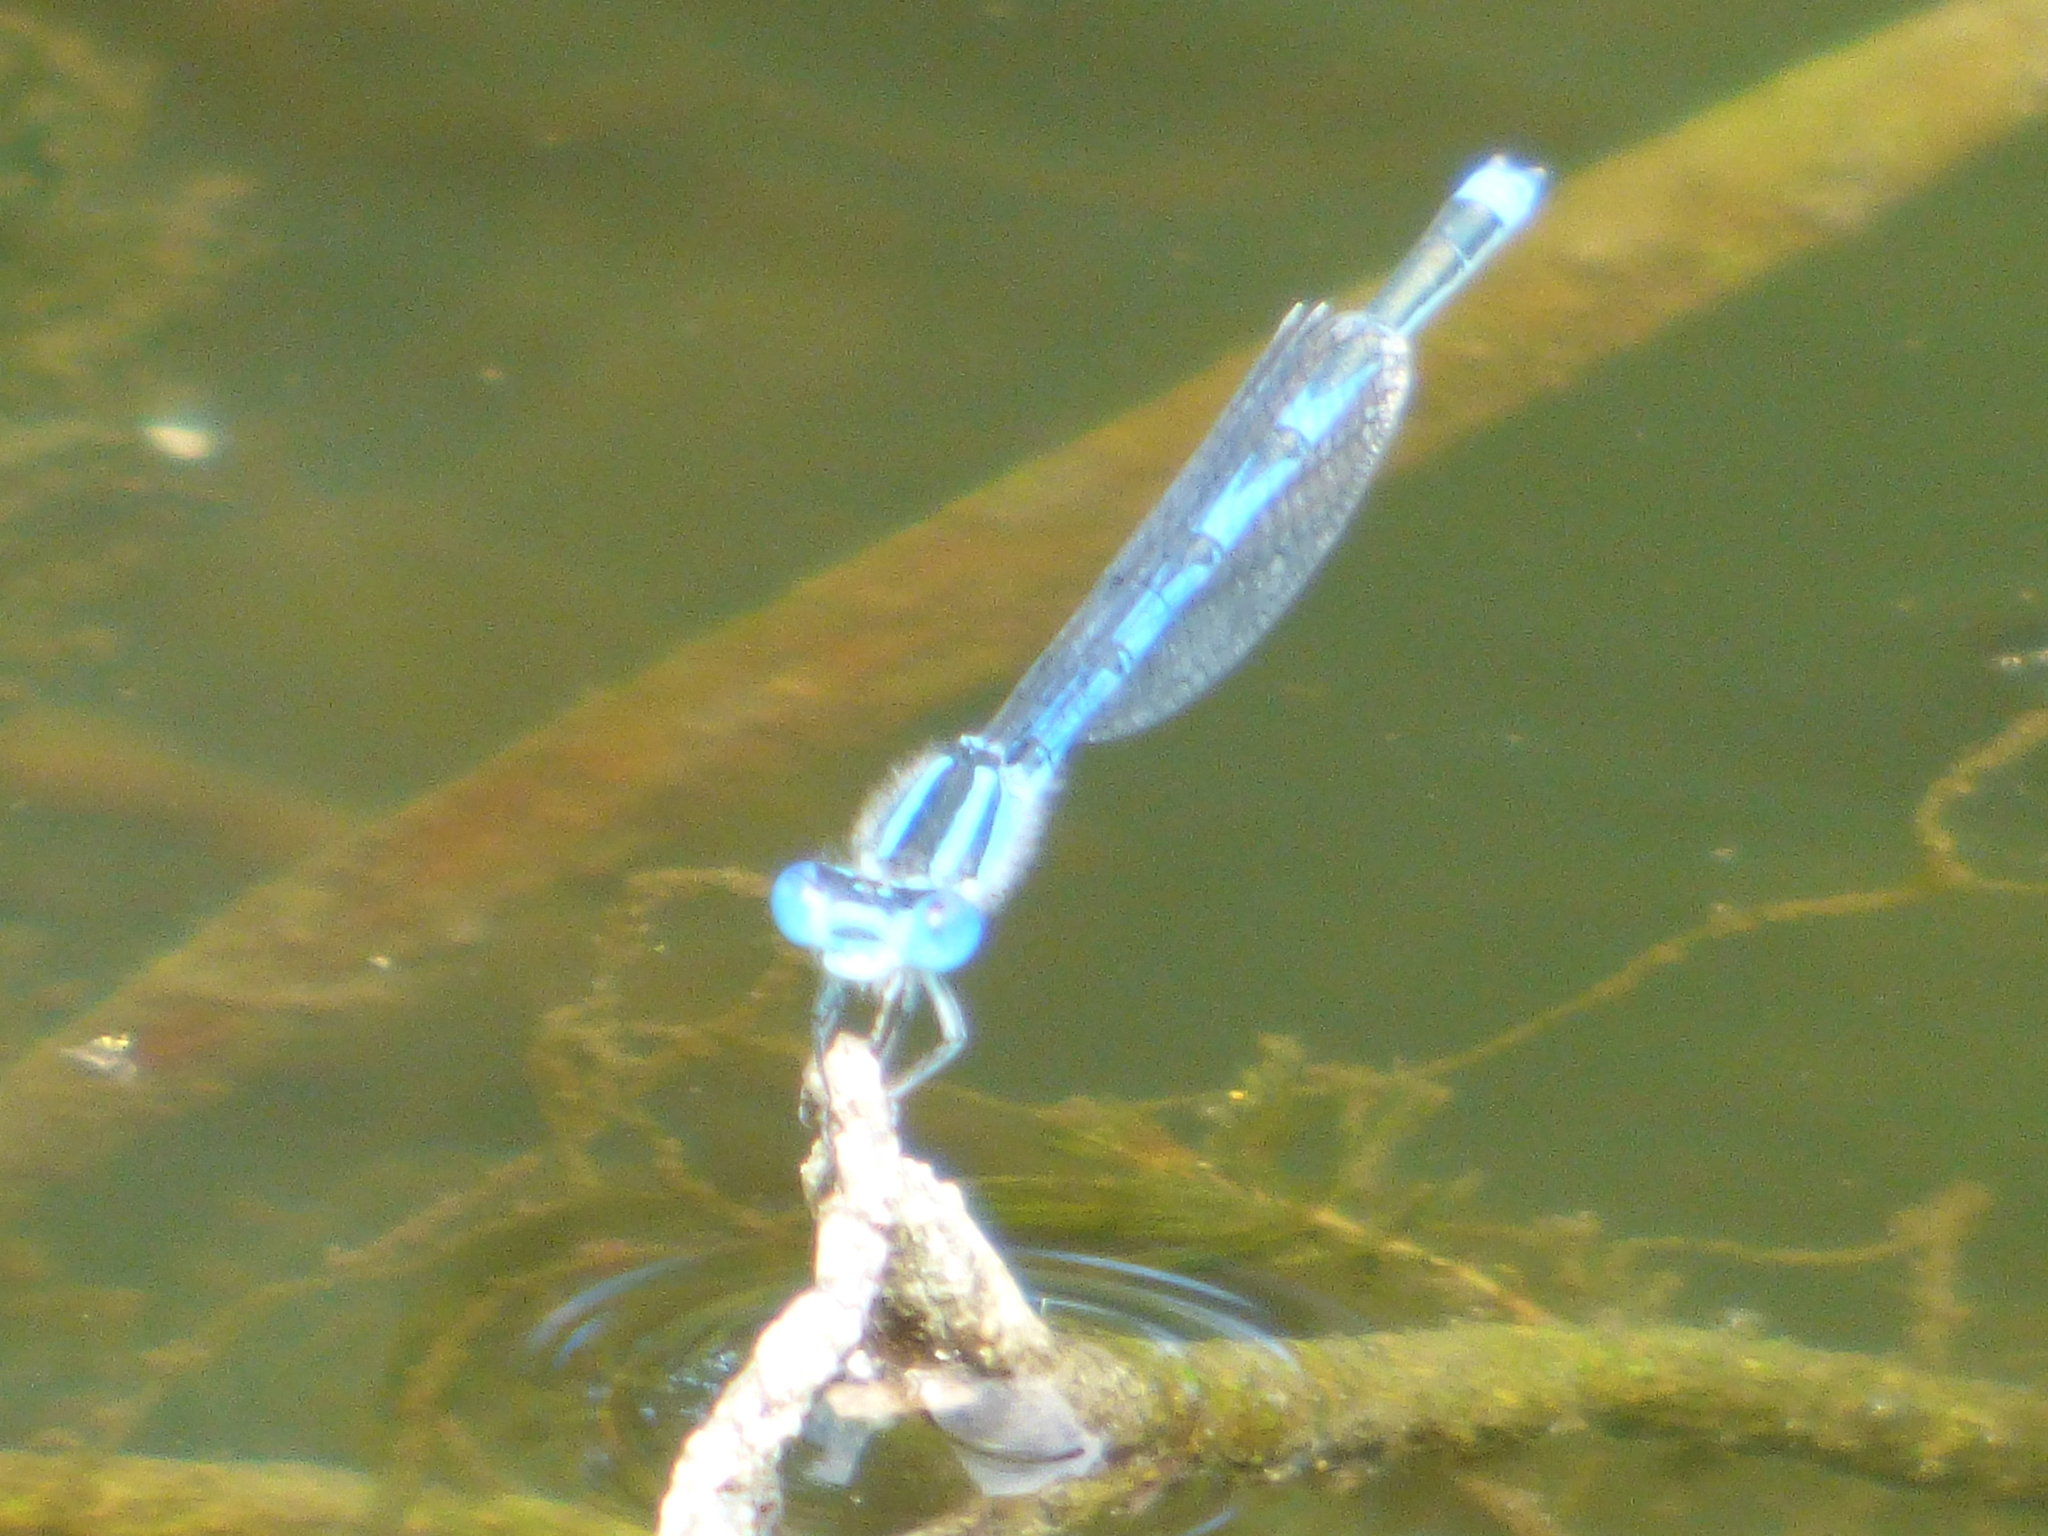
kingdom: Animalia
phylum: Arthropoda
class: Insecta
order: Odonata
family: Coenagrionidae
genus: Erythromma
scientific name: Erythromma lindenii
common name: Blue-eye
